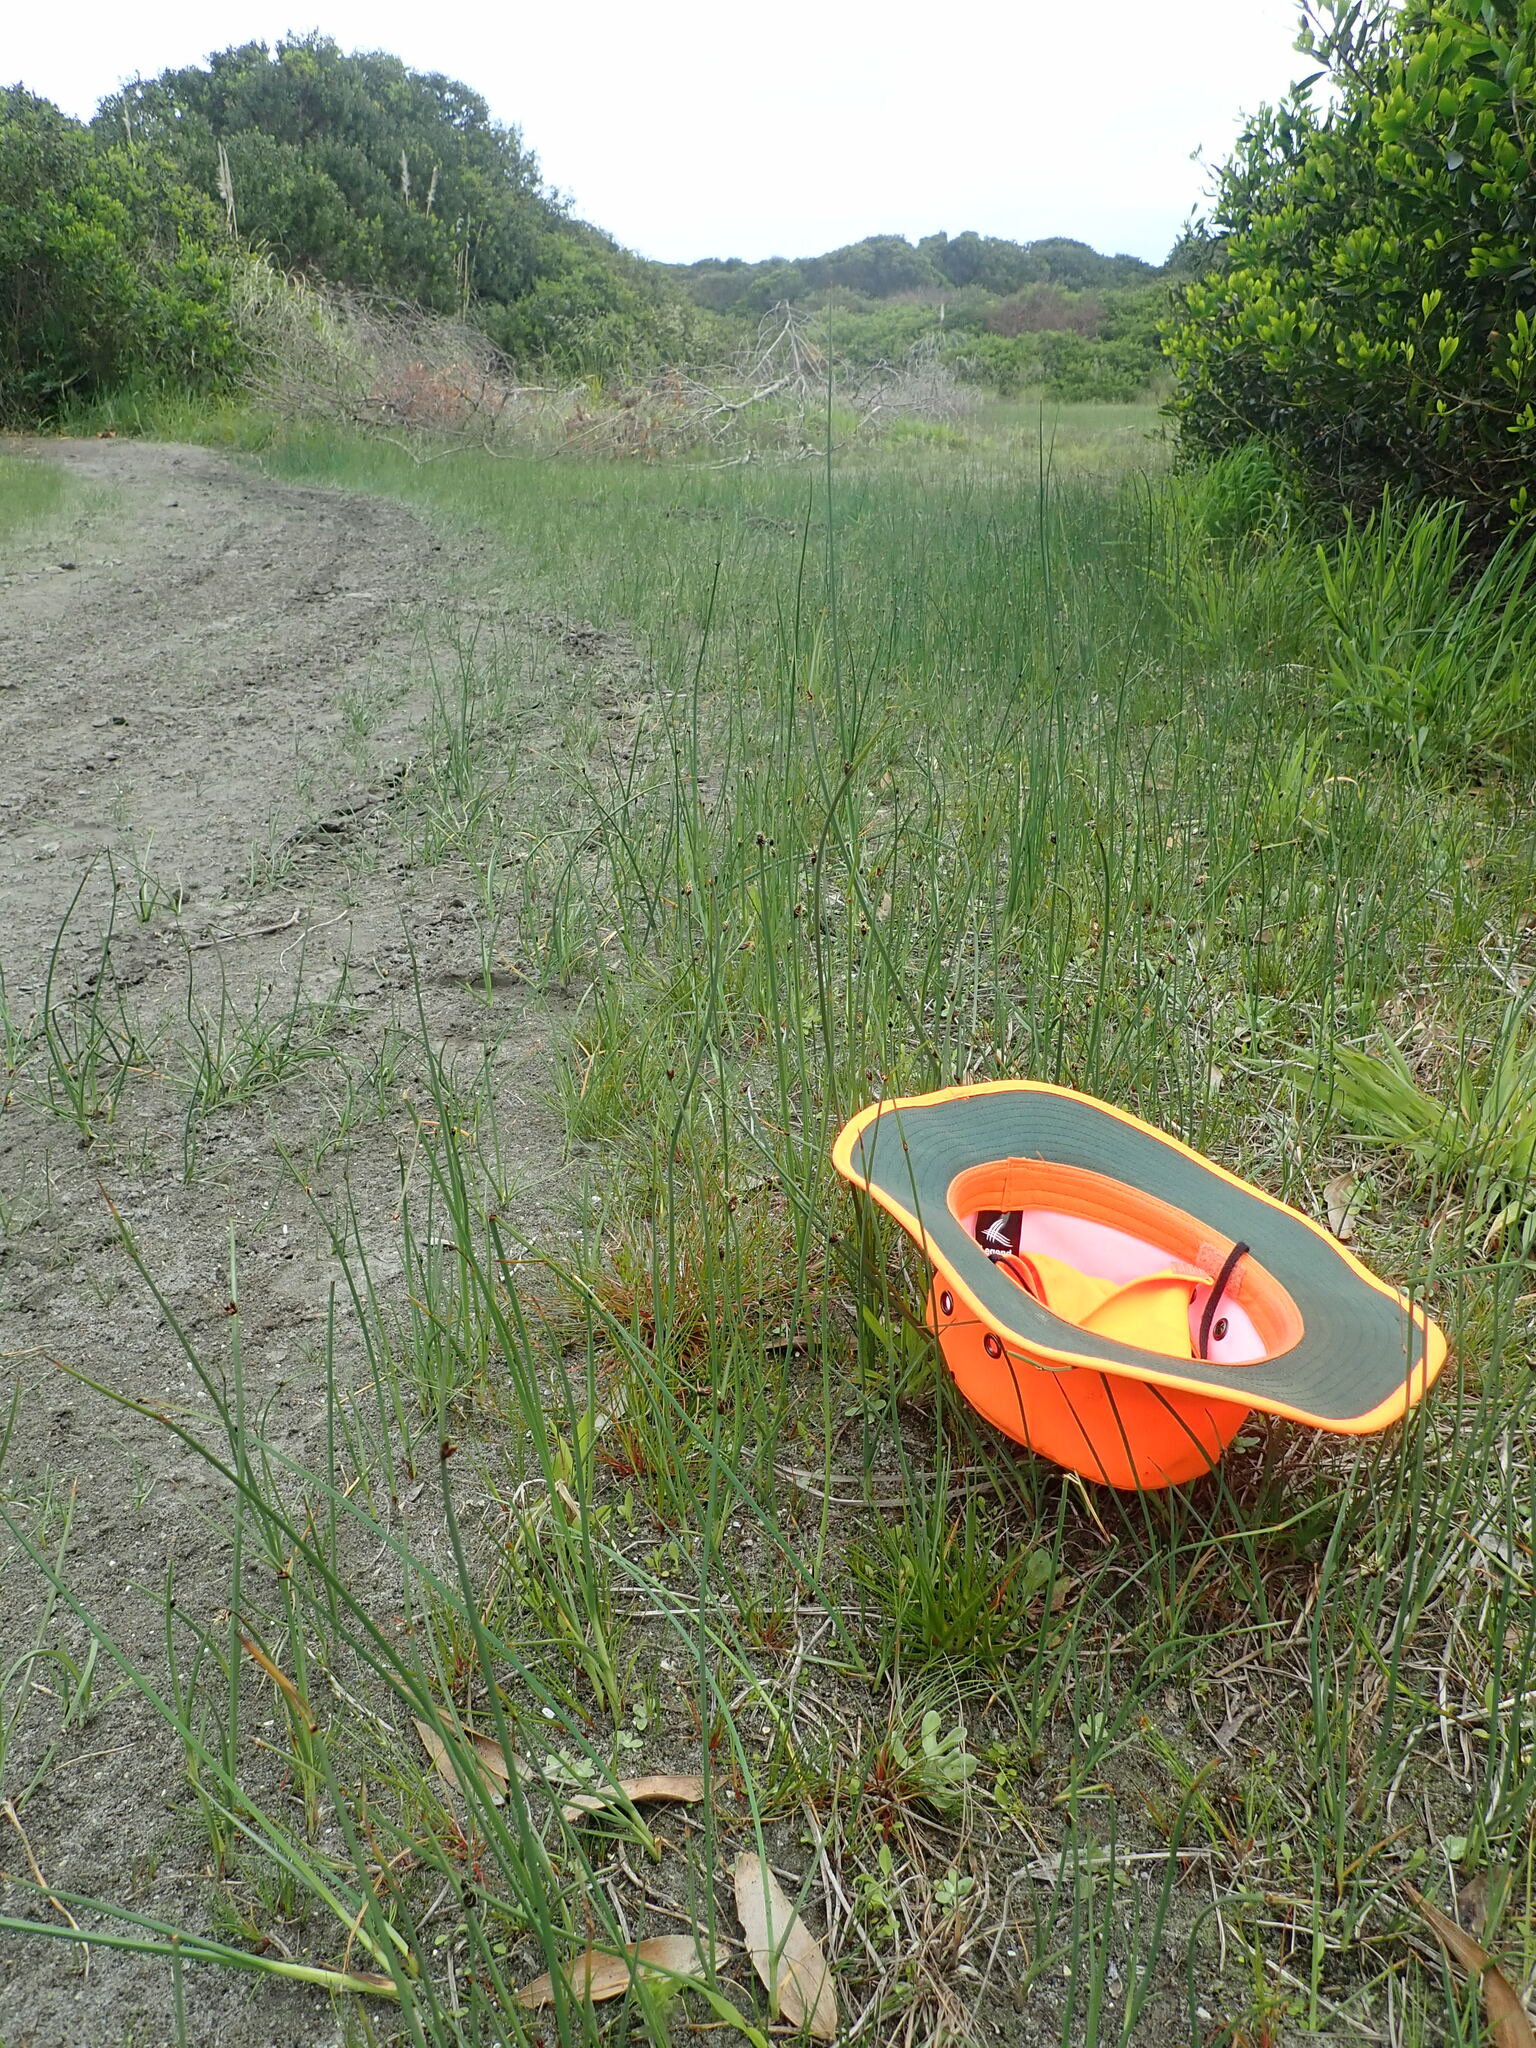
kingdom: Plantae
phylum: Tracheophyta
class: Liliopsida
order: Poales
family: Juncaceae
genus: Juncus
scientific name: Juncus caespiticius
